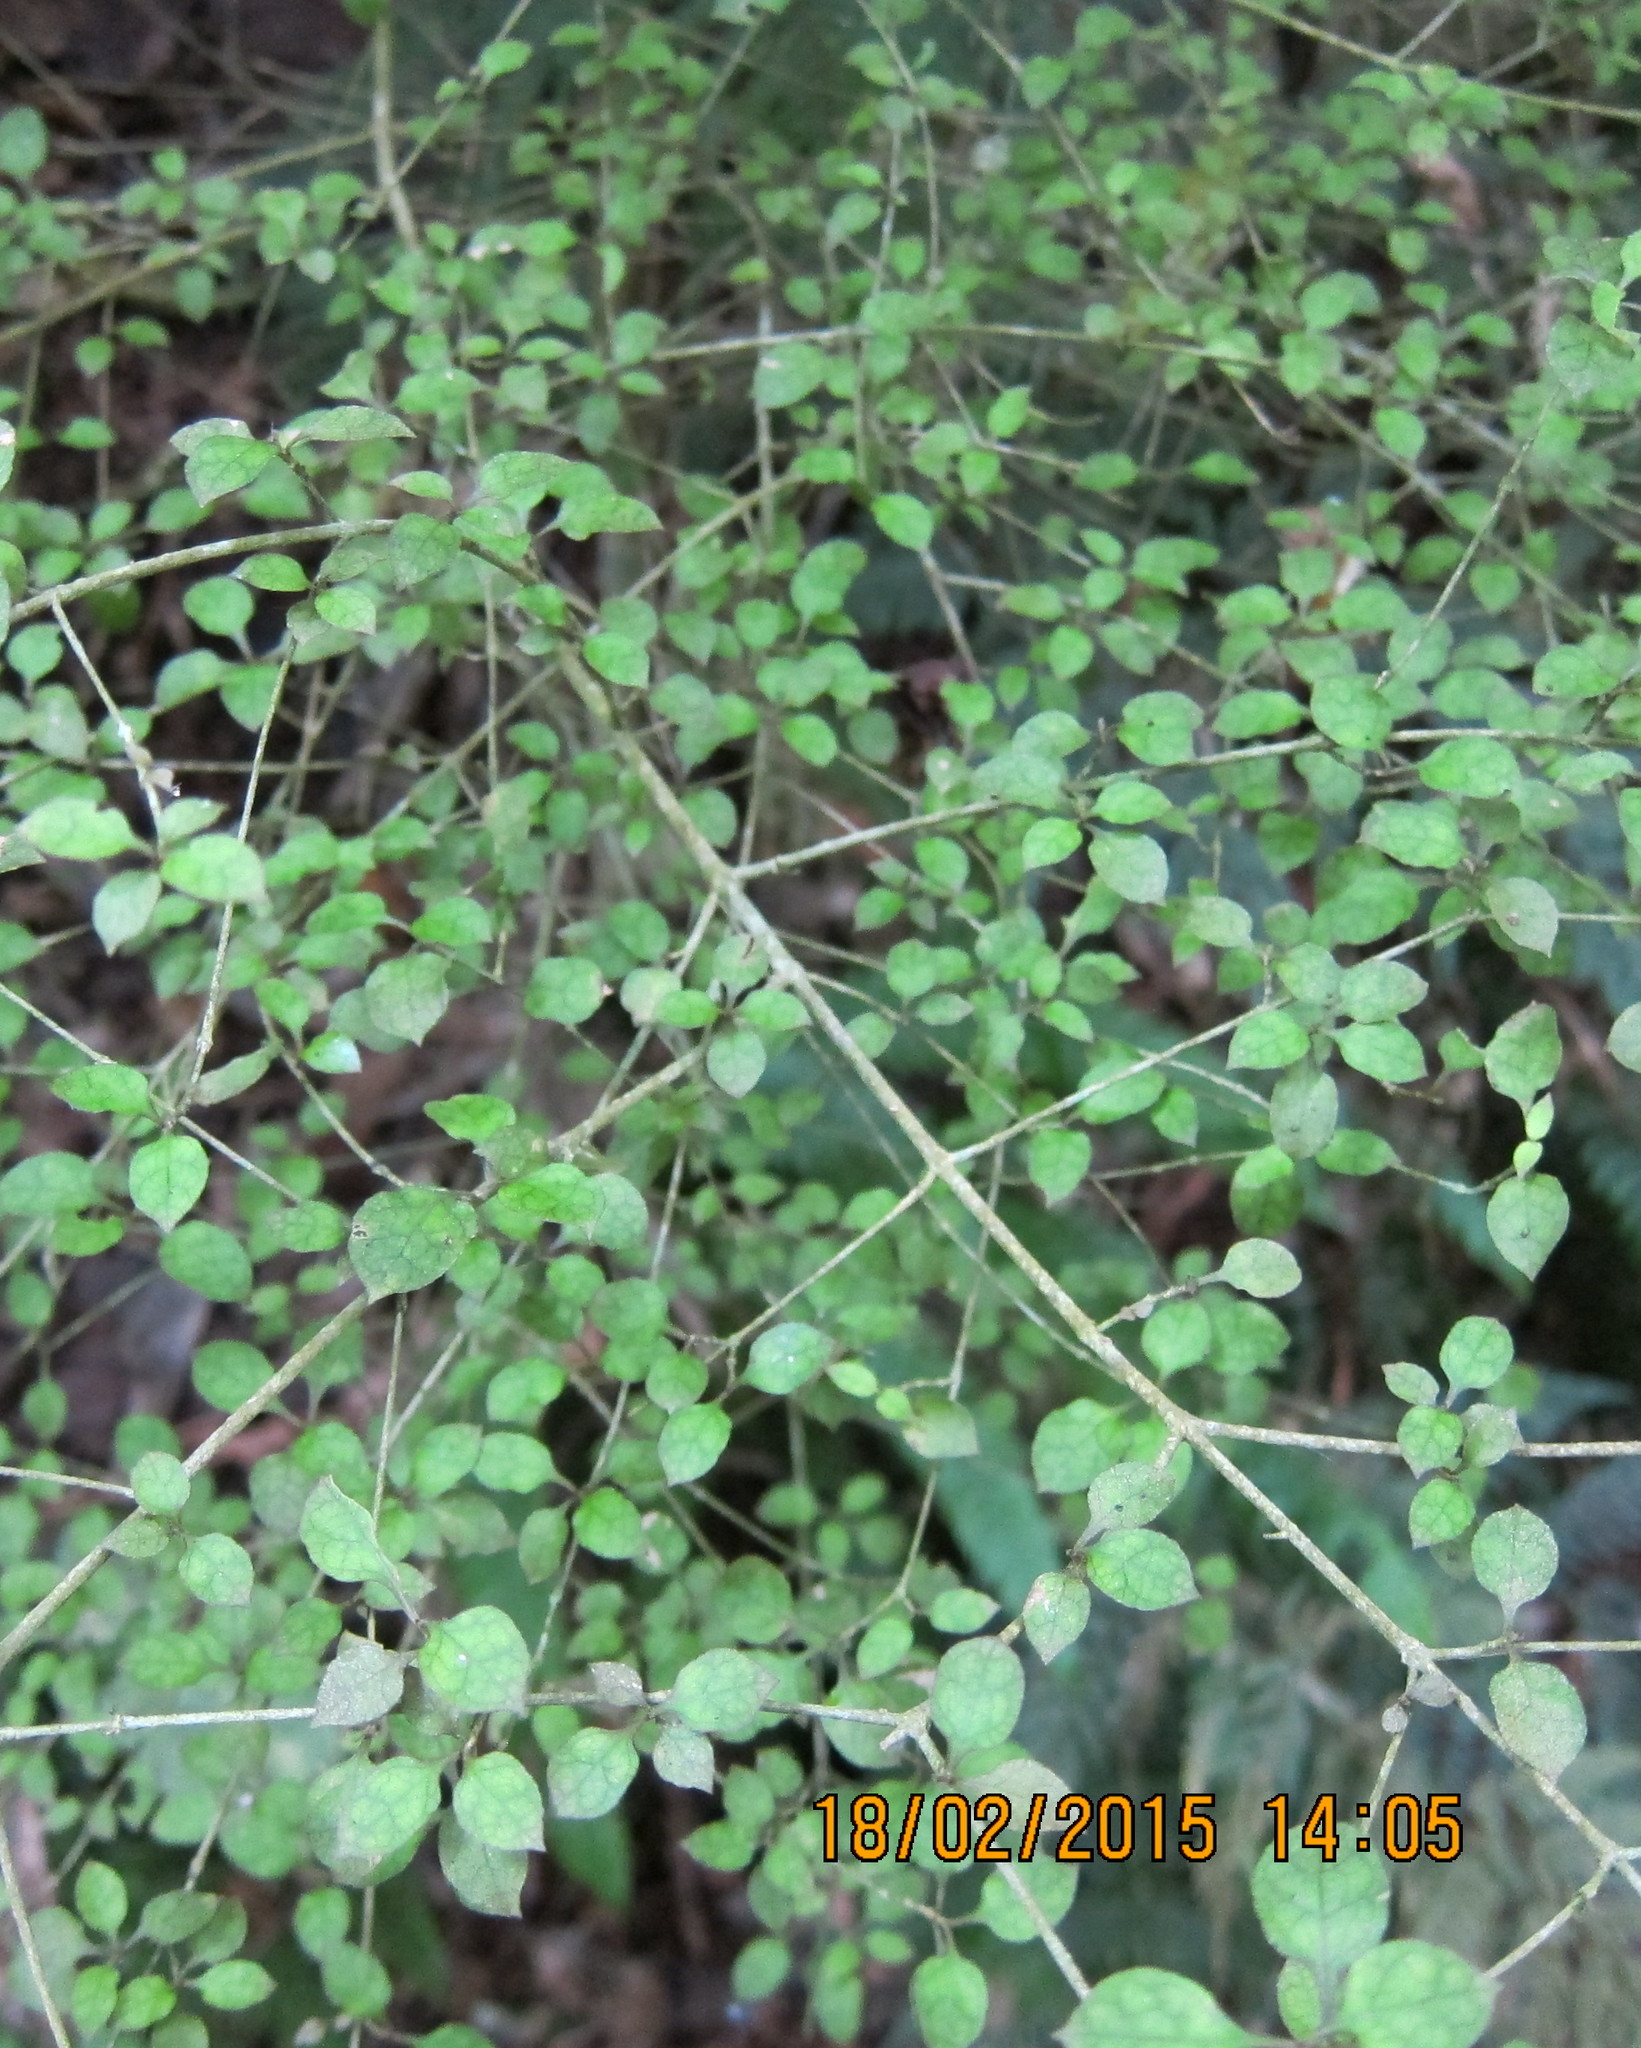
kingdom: Plantae
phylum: Tracheophyta
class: Magnoliopsida
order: Gentianales
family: Rubiaceae
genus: Coprosma
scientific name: Coprosma areolata
